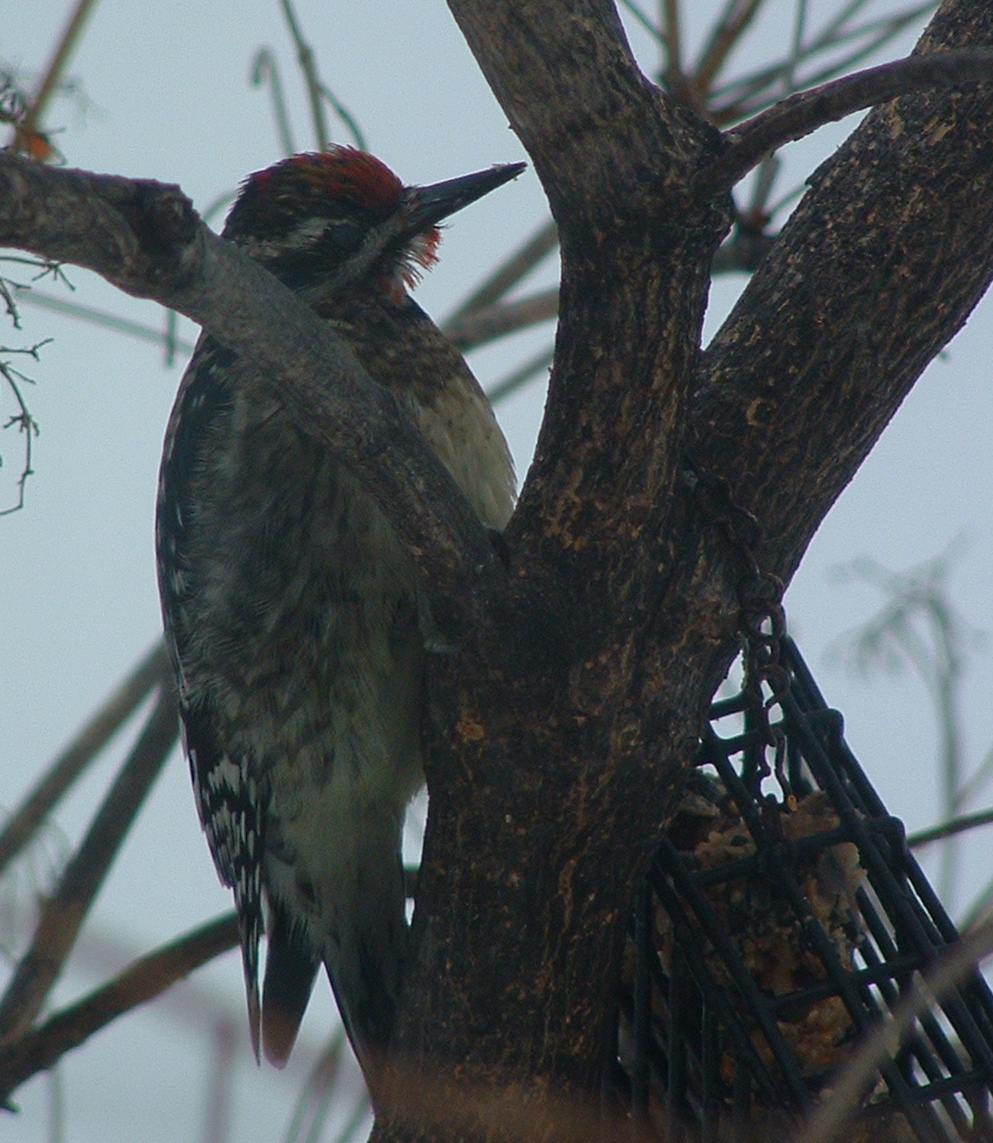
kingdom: Animalia
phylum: Chordata
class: Aves
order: Piciformes
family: Picidae
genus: Sphyrapicus
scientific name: Sphyrapicus varius
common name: Yellow-bellied sapsucker
